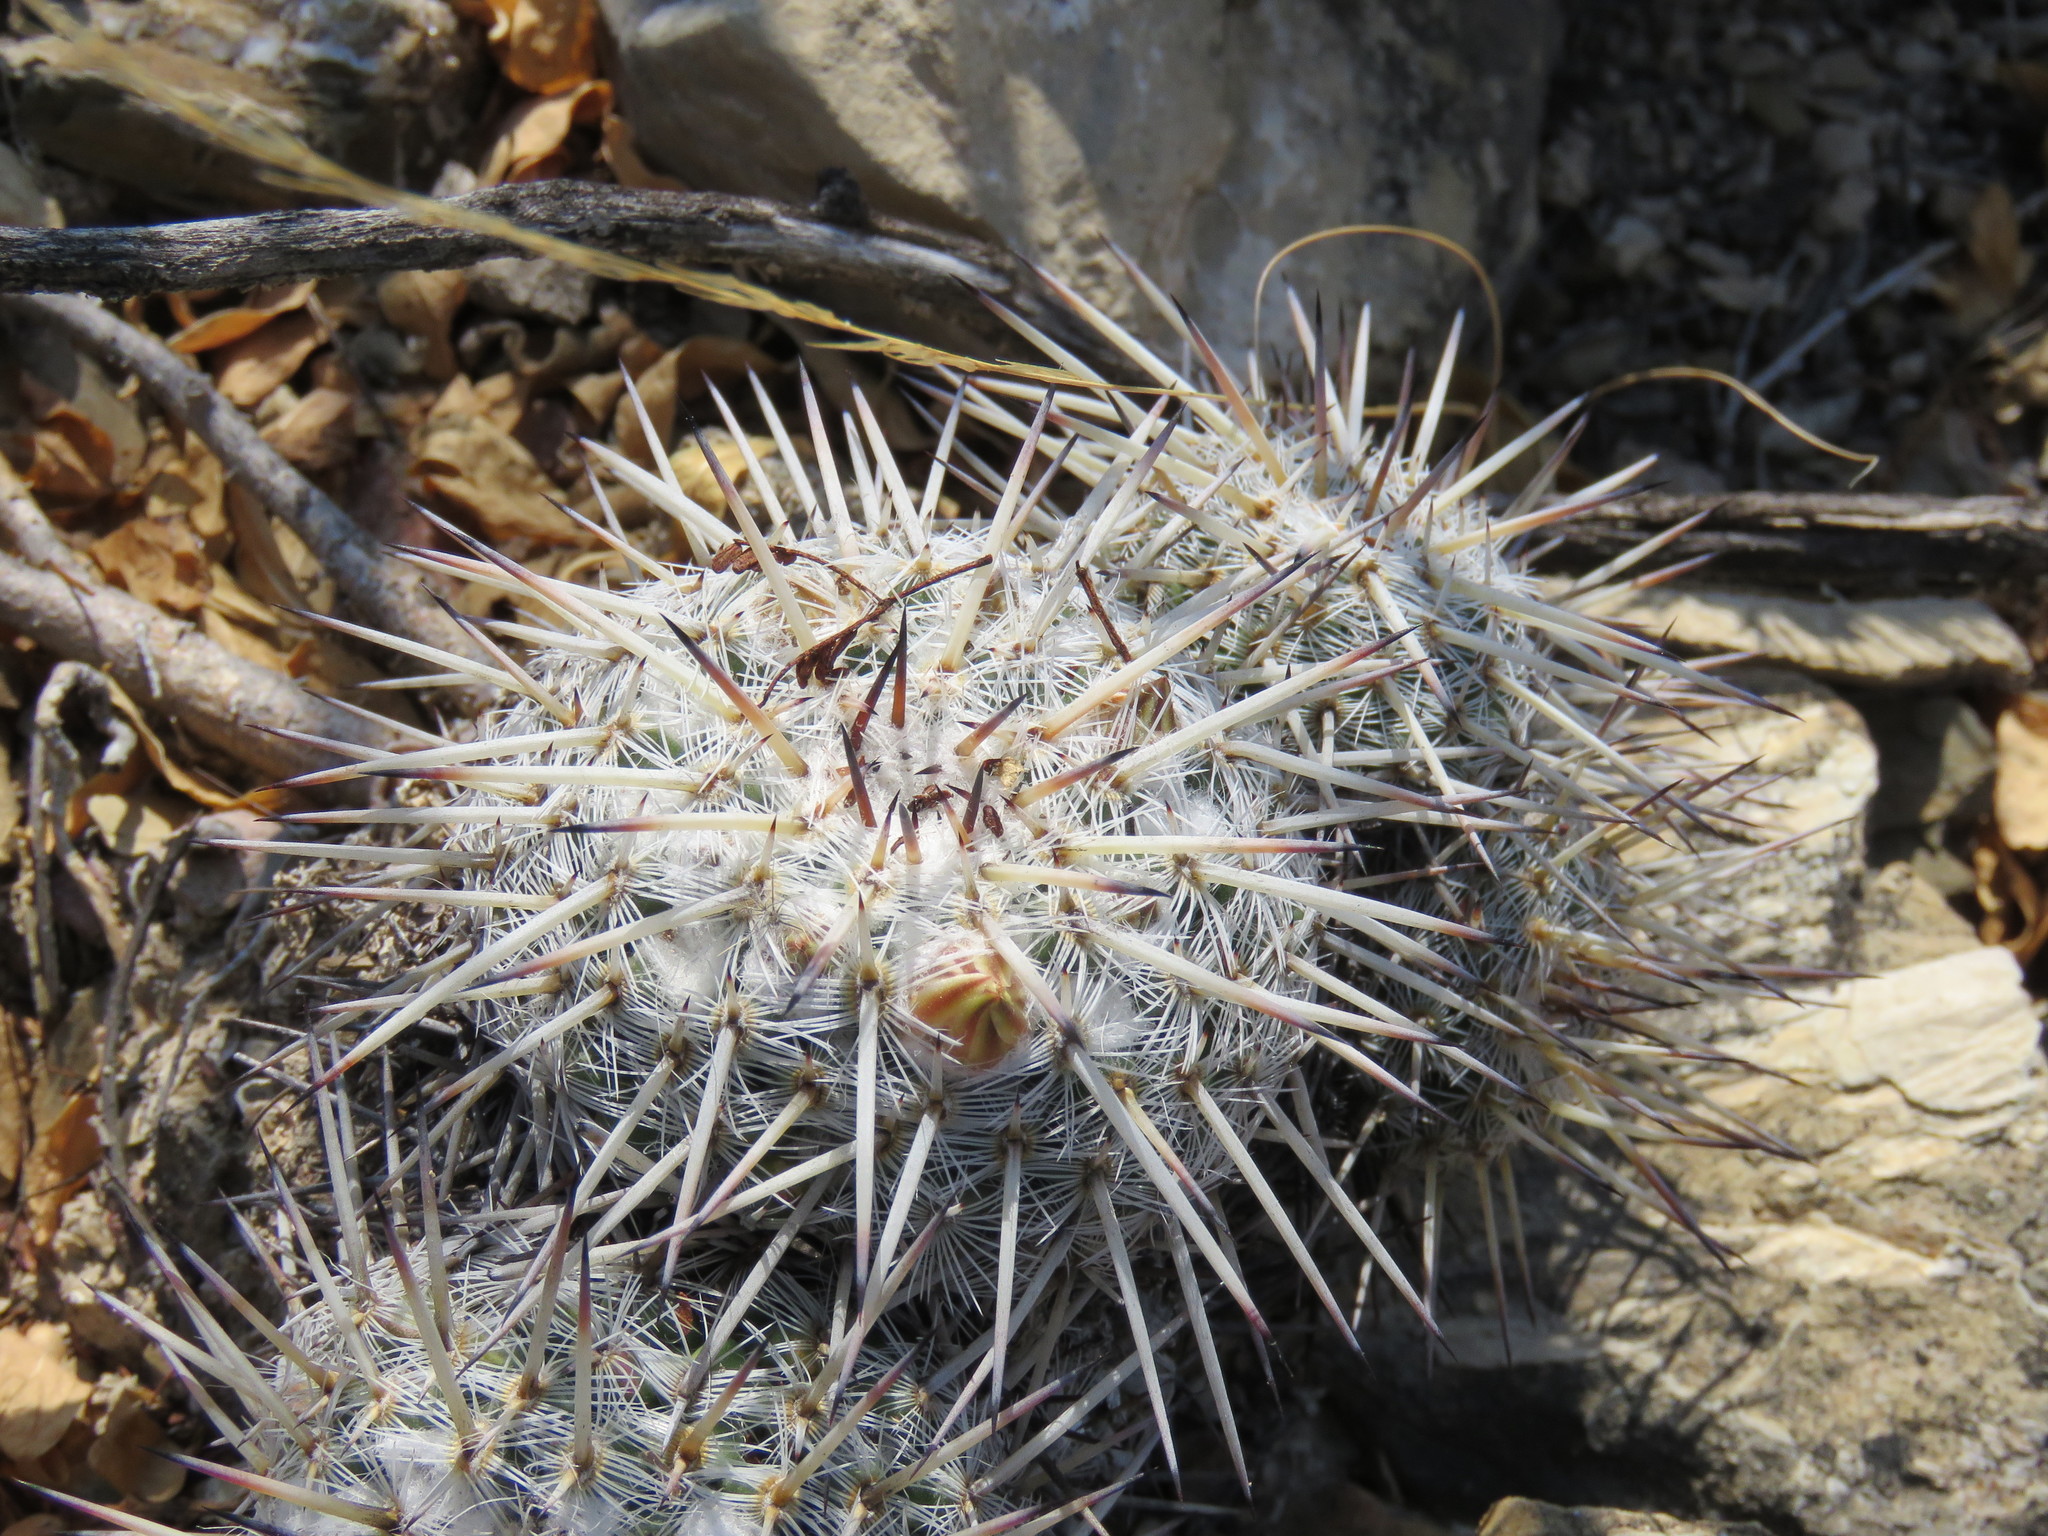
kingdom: Plantae
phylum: Tracheophyta
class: Magnoliopsida
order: Caryophyllales
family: Cactaceae
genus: Mammillaria
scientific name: Mammillaria parkinsonii
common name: Owl's-eye
